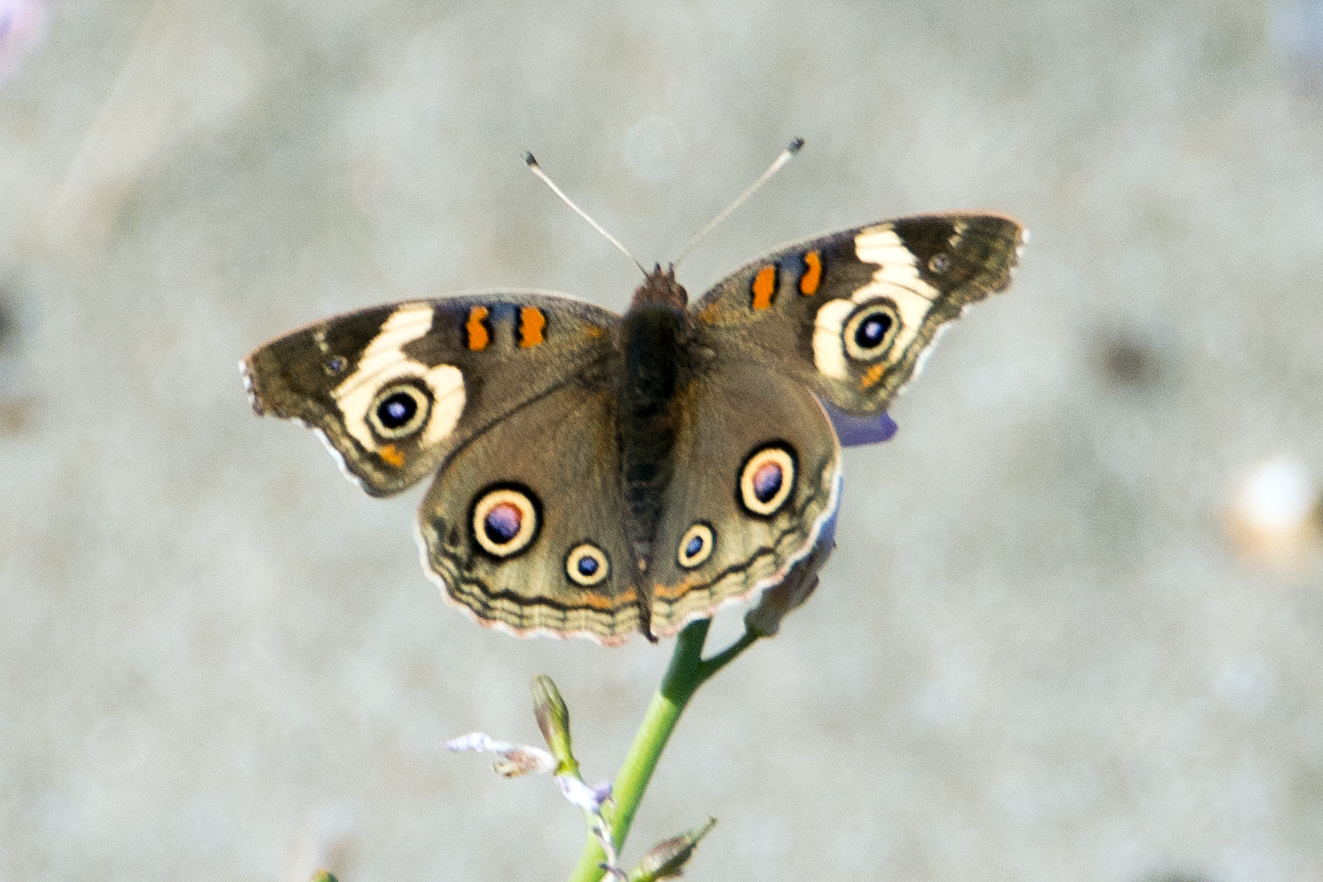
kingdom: Animalia
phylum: Arthropoda
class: Insecta
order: Lepidoptera
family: Nymphalidae
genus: Junonia
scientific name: Junonia grisea
